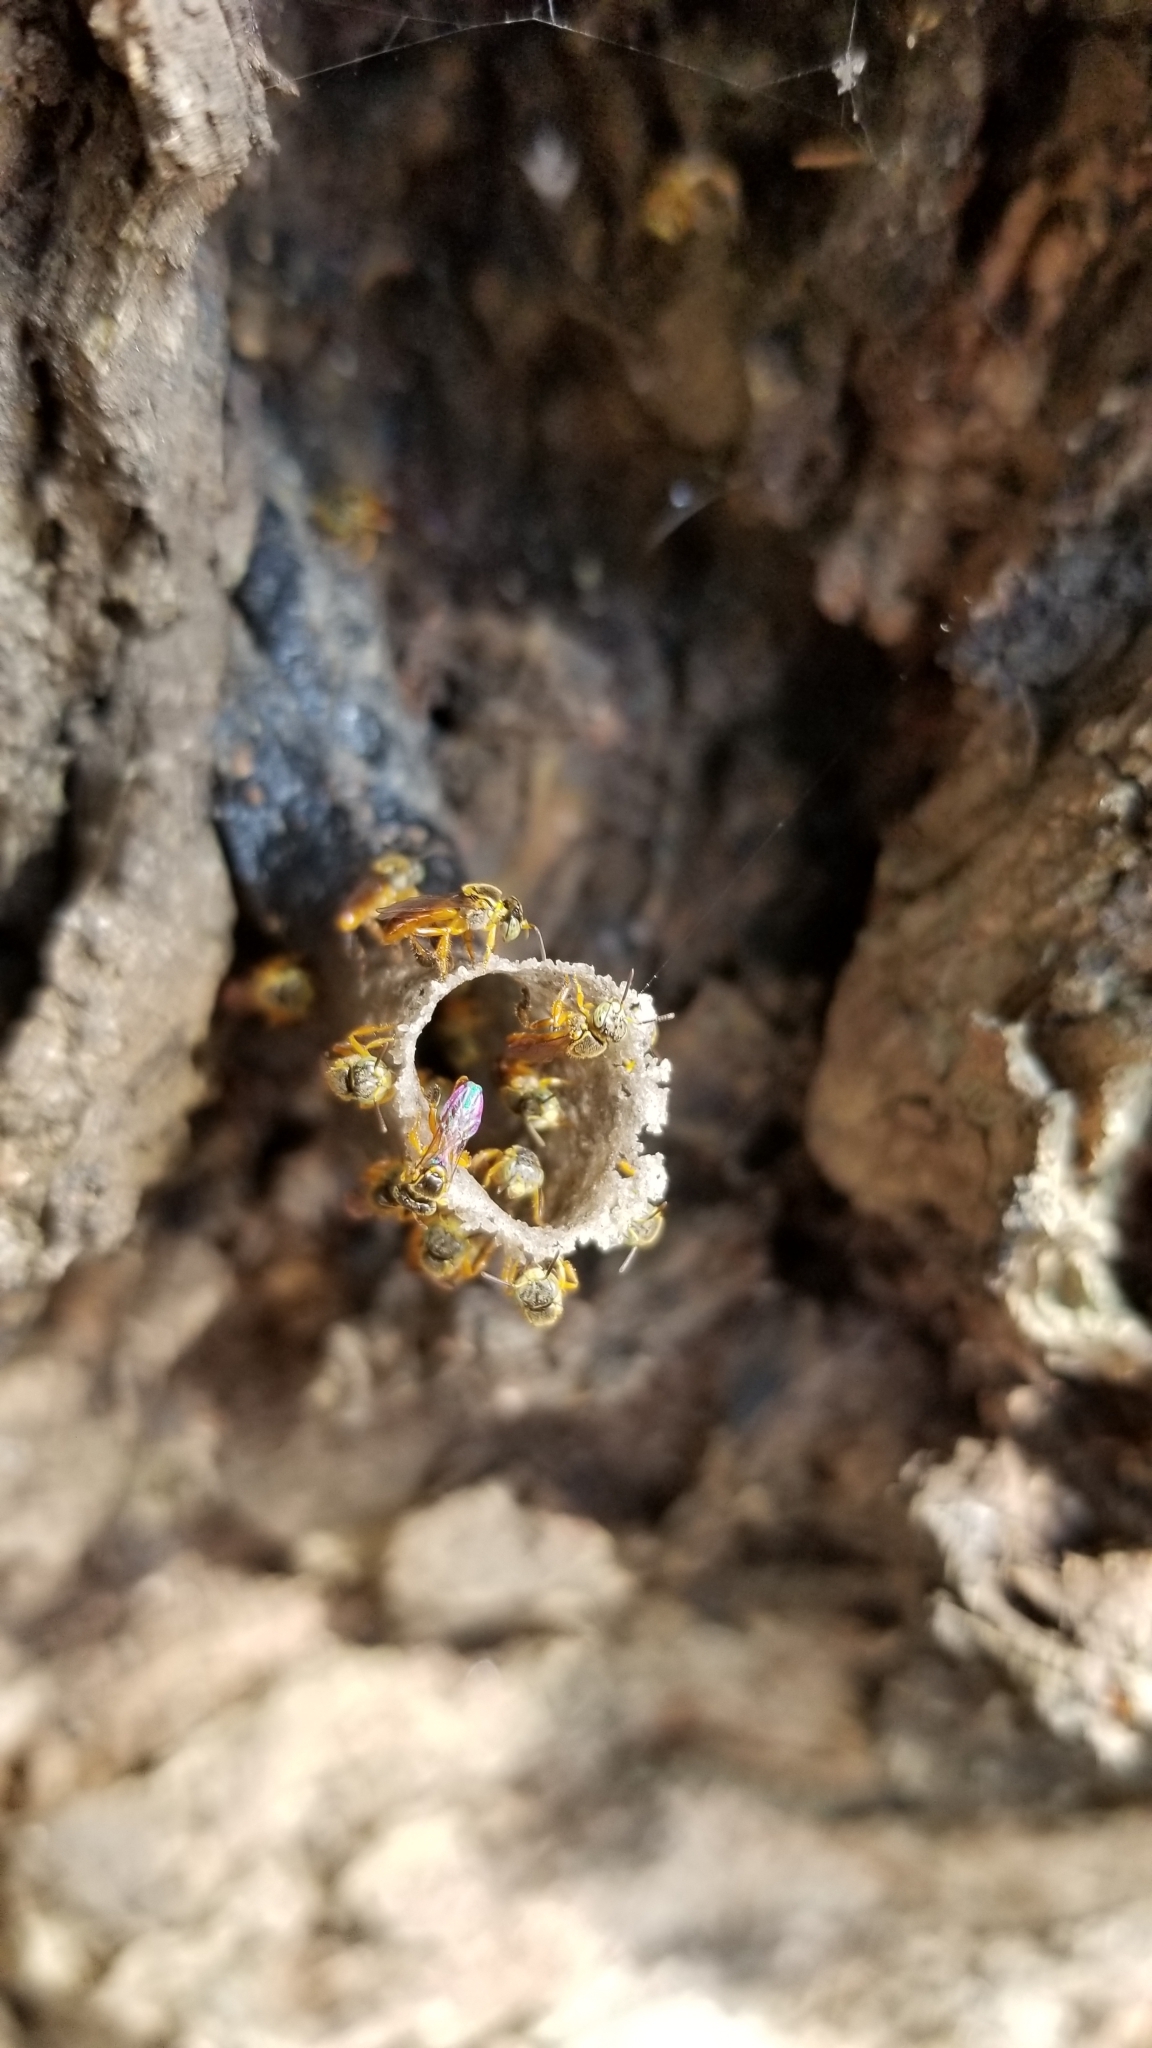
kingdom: Animalia
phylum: Arthropoda
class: Insecta
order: Hymenoptera
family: Apidae
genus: Tetragonisca
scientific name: Tetragonisca angustula
